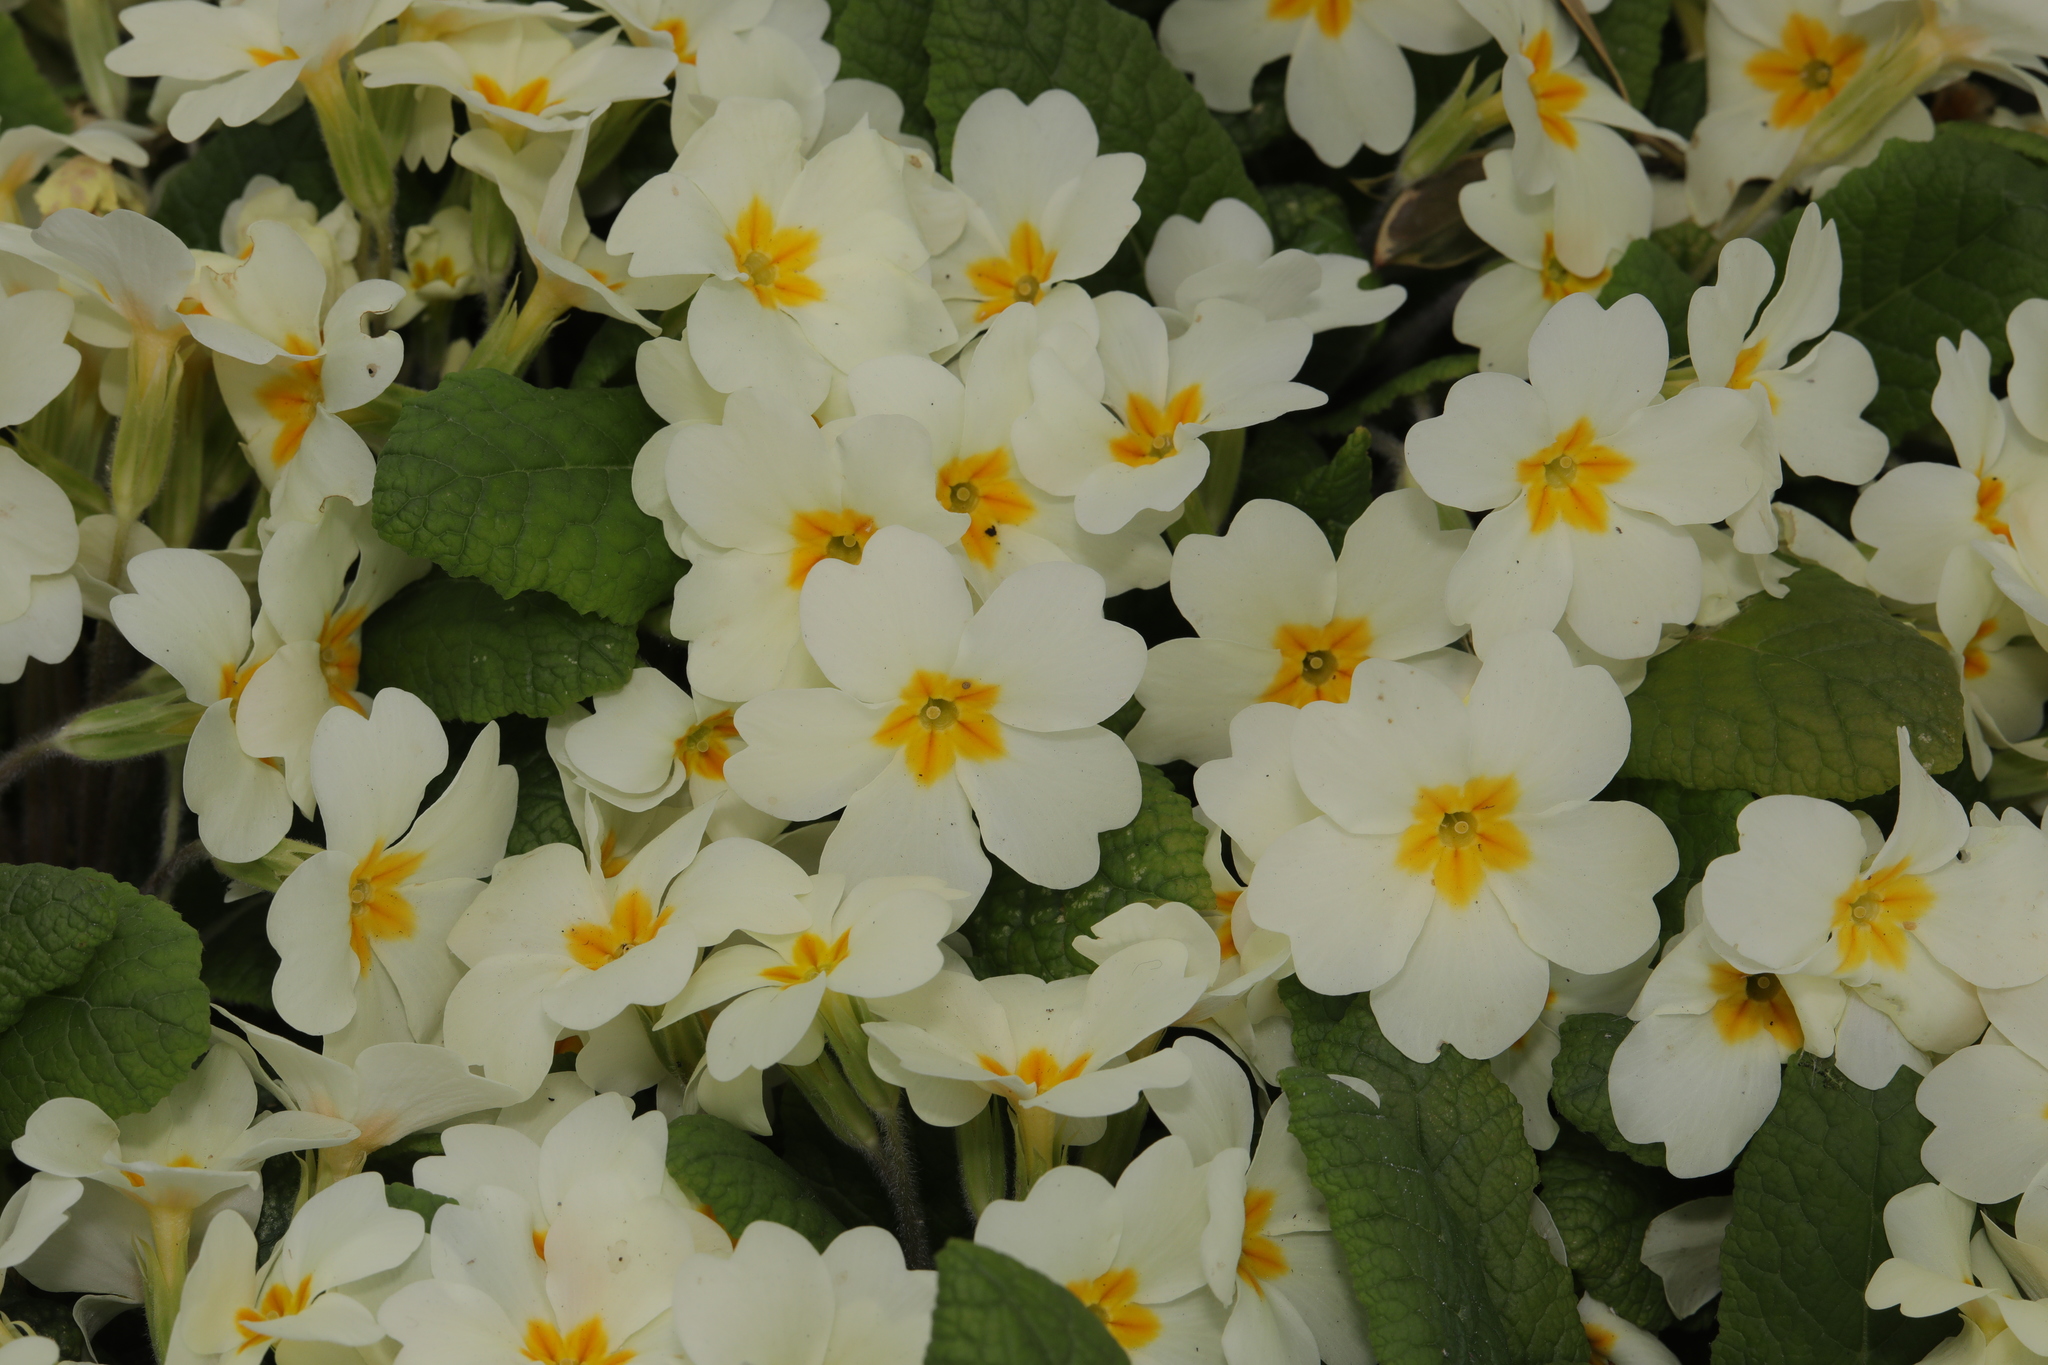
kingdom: Plantae
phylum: Tracheophyta
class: Magnoliopsida
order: Ericales
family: Primulaceae
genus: Primula
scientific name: Primula vulgaris
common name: Primrose
